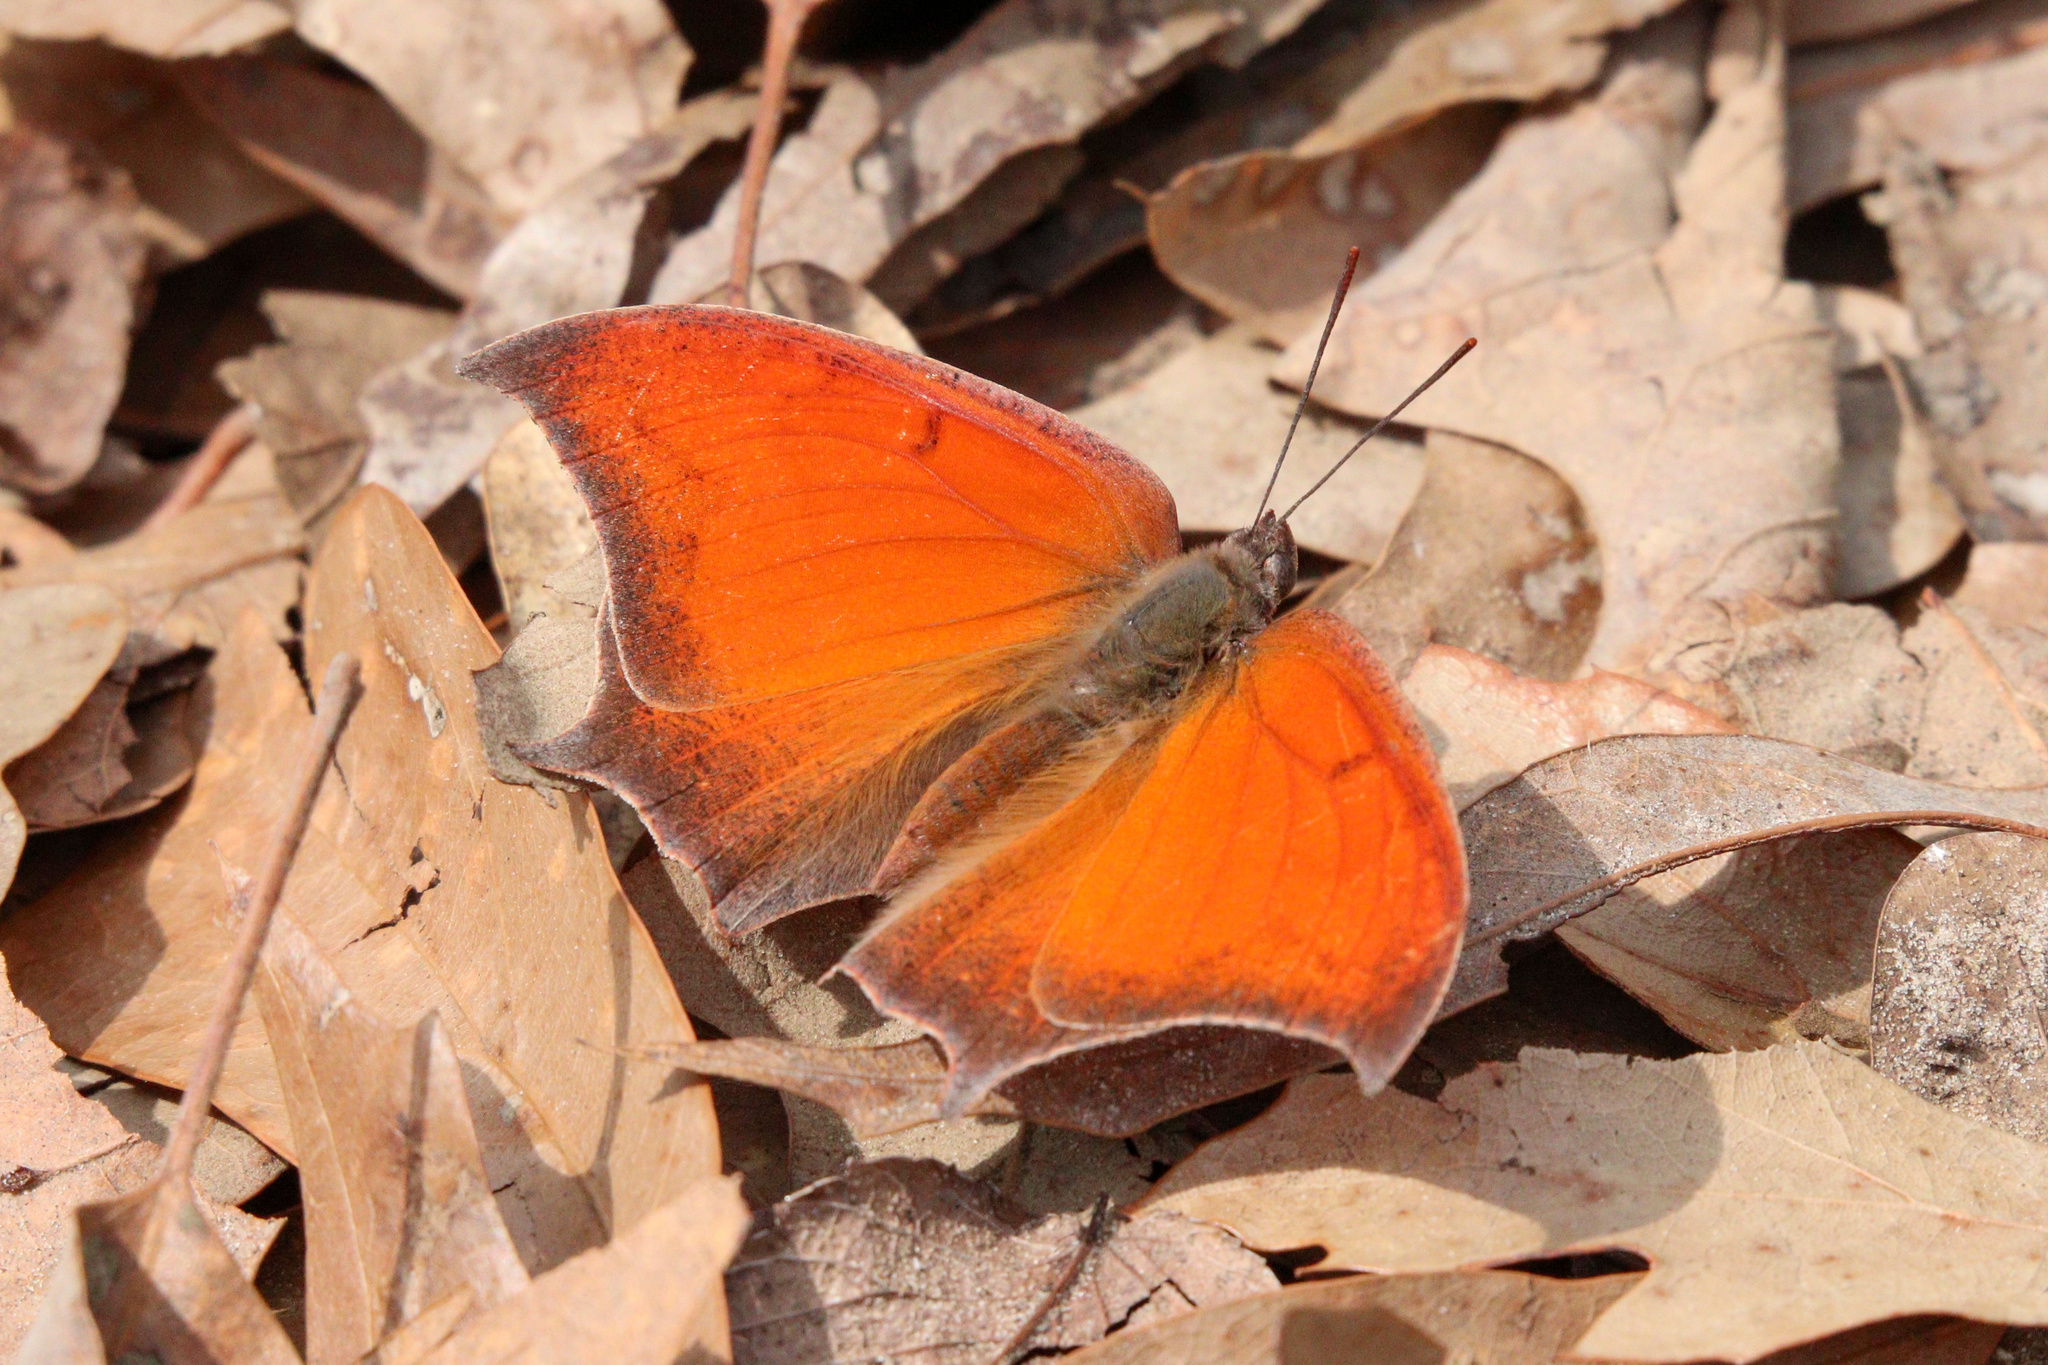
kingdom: Animalia
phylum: Arthropoda
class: Insecta
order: Lepidoptera
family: Nymphalidae
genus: Anaea
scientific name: Anaea andria
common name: Goatweed leafwing
